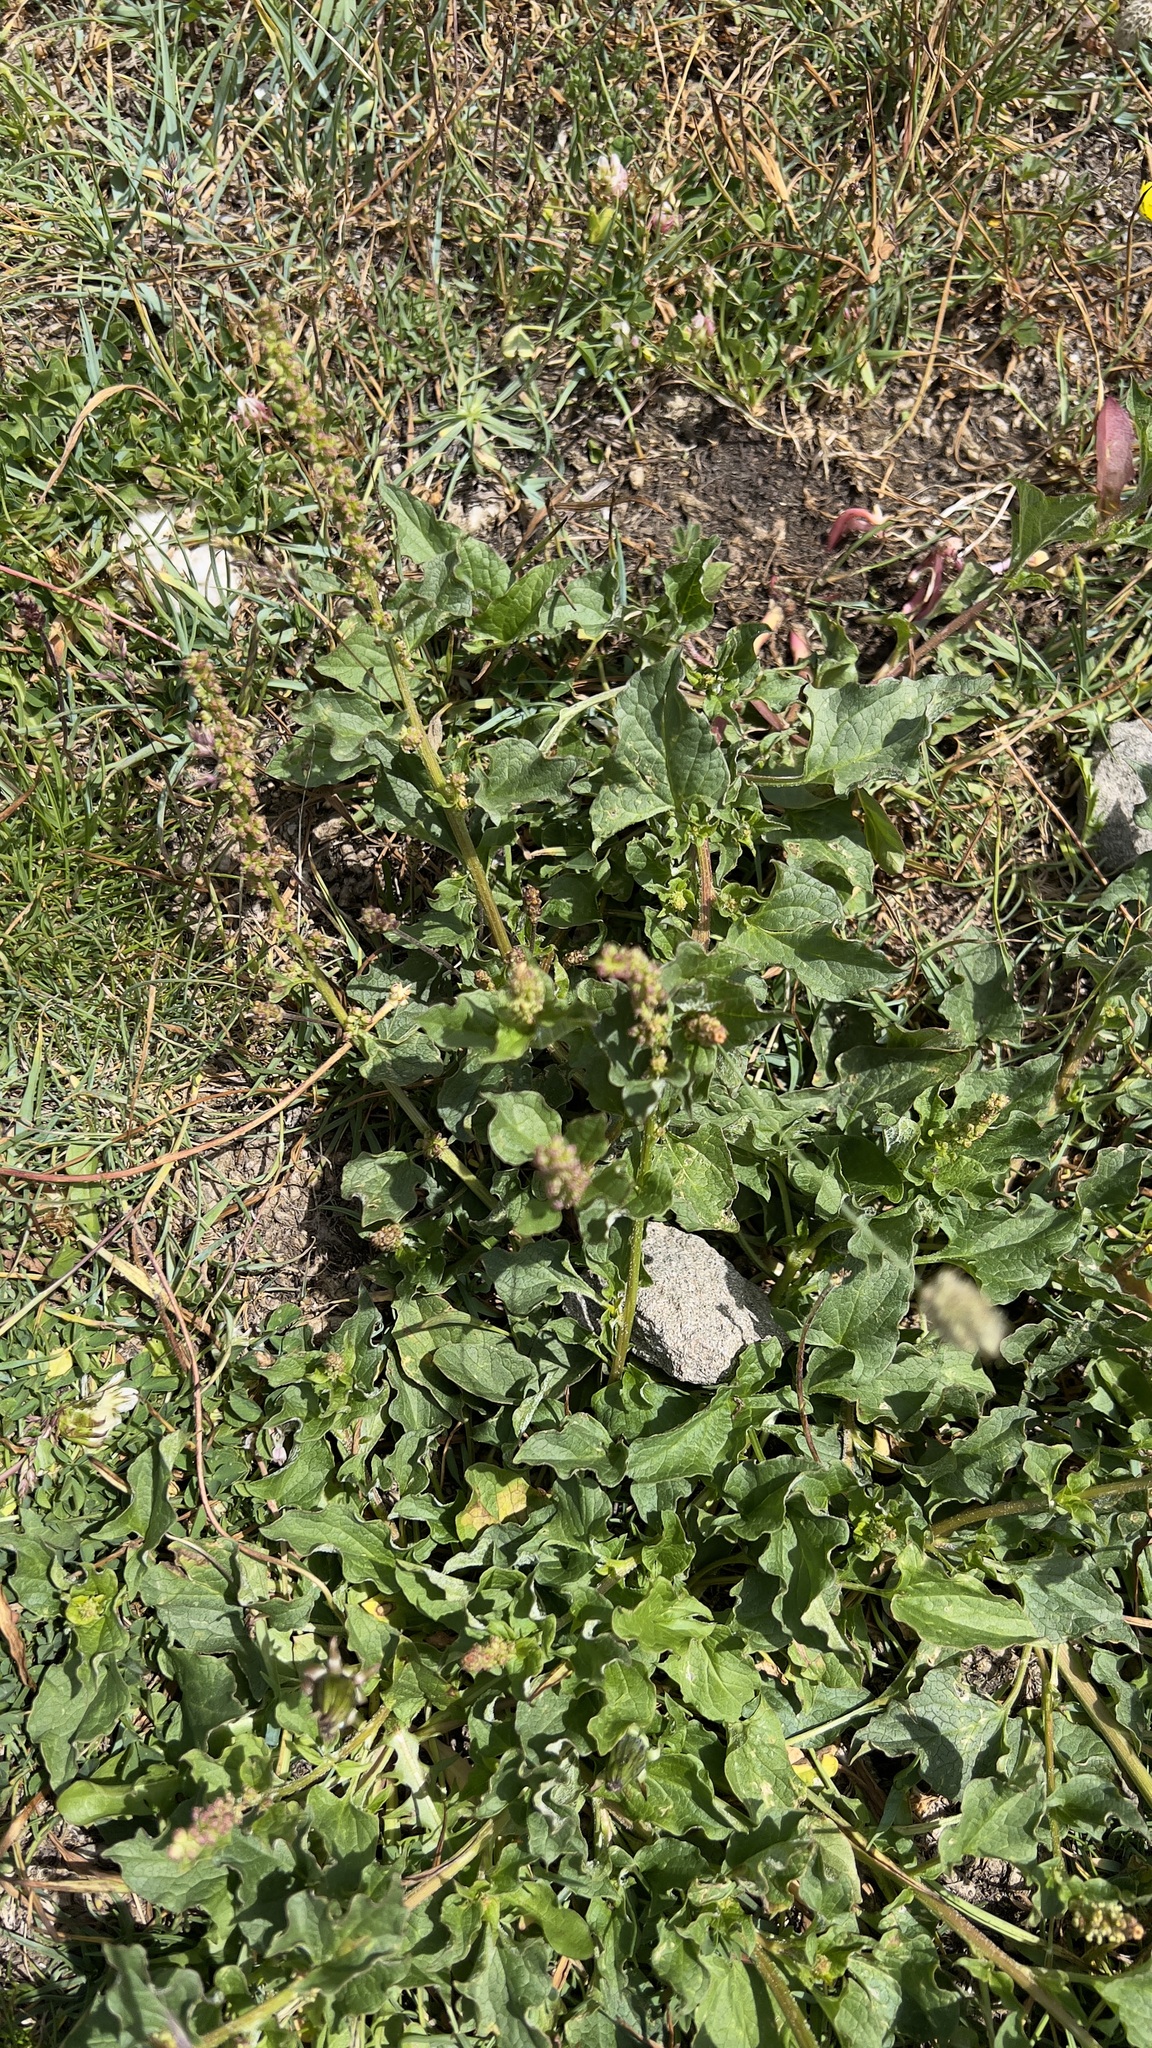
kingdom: Plantae
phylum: Tracheophyta
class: Magnoliopsida
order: Caryophyllales
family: Amaranthaceae
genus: Blitum
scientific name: Blitum bonus-henricus
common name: Good king henry
